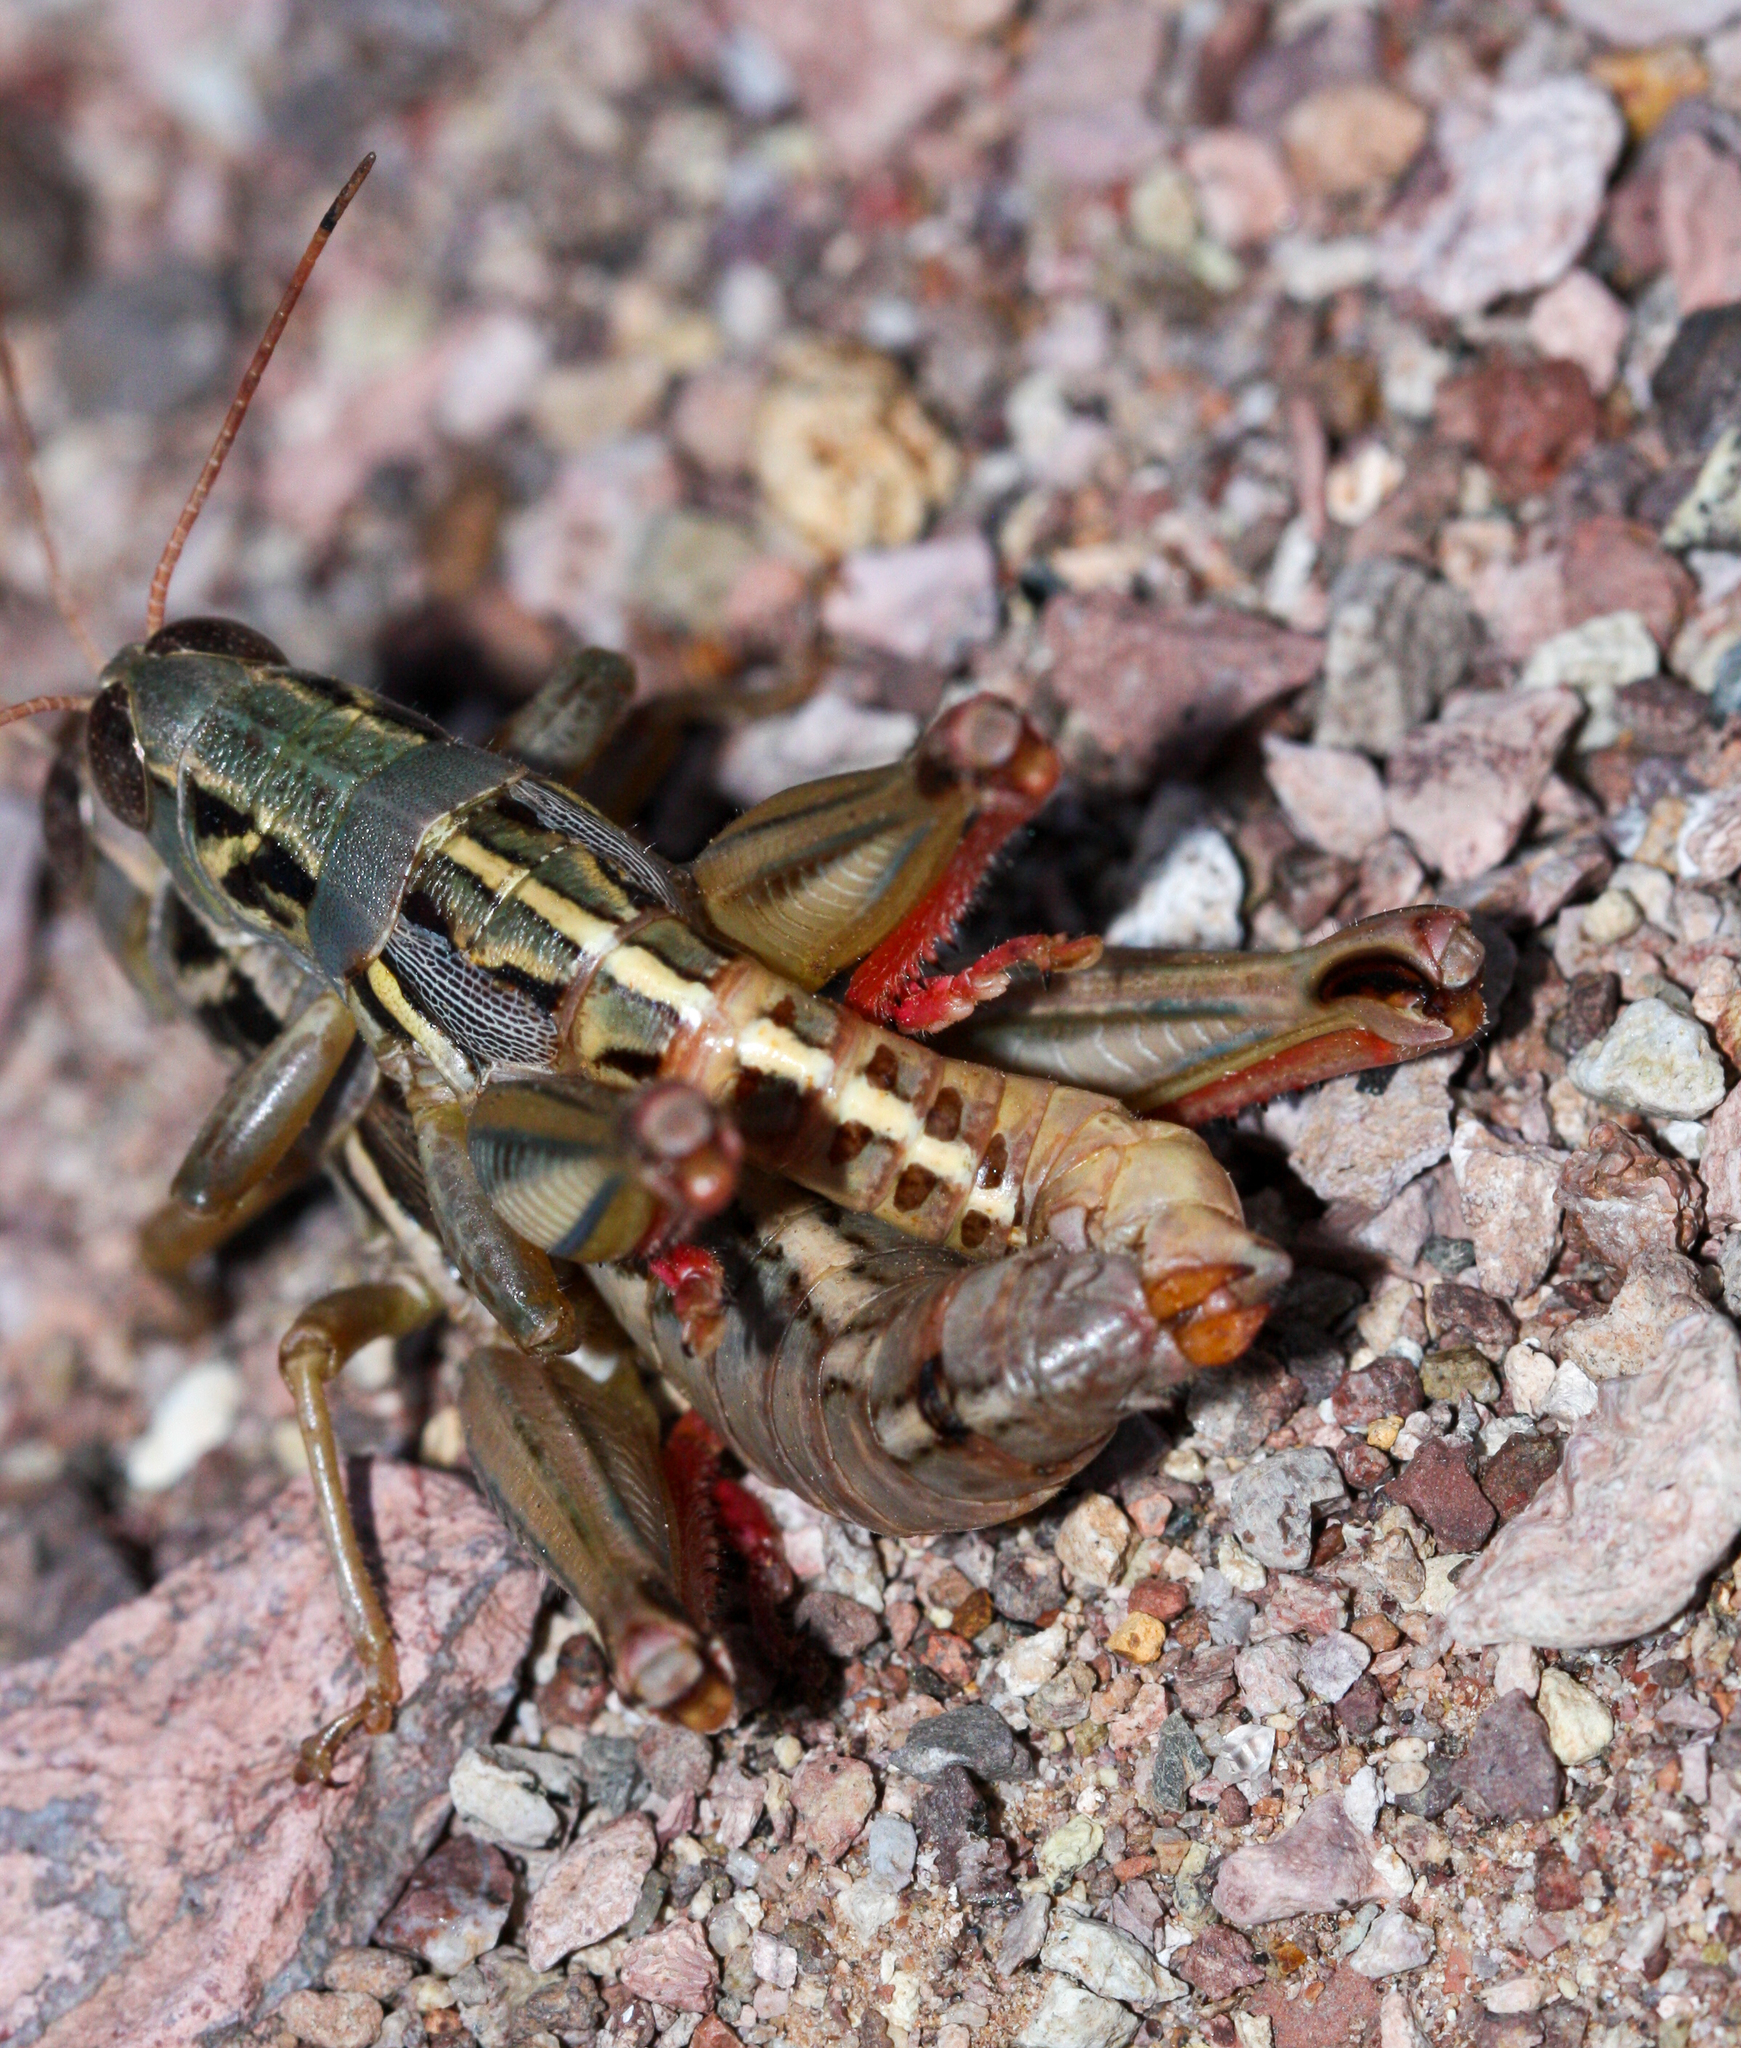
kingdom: Animalia
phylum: Arthropoda
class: Insecta
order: Orthoptera
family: Acrididae
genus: Barytettix
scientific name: Barytettix humphreysii
